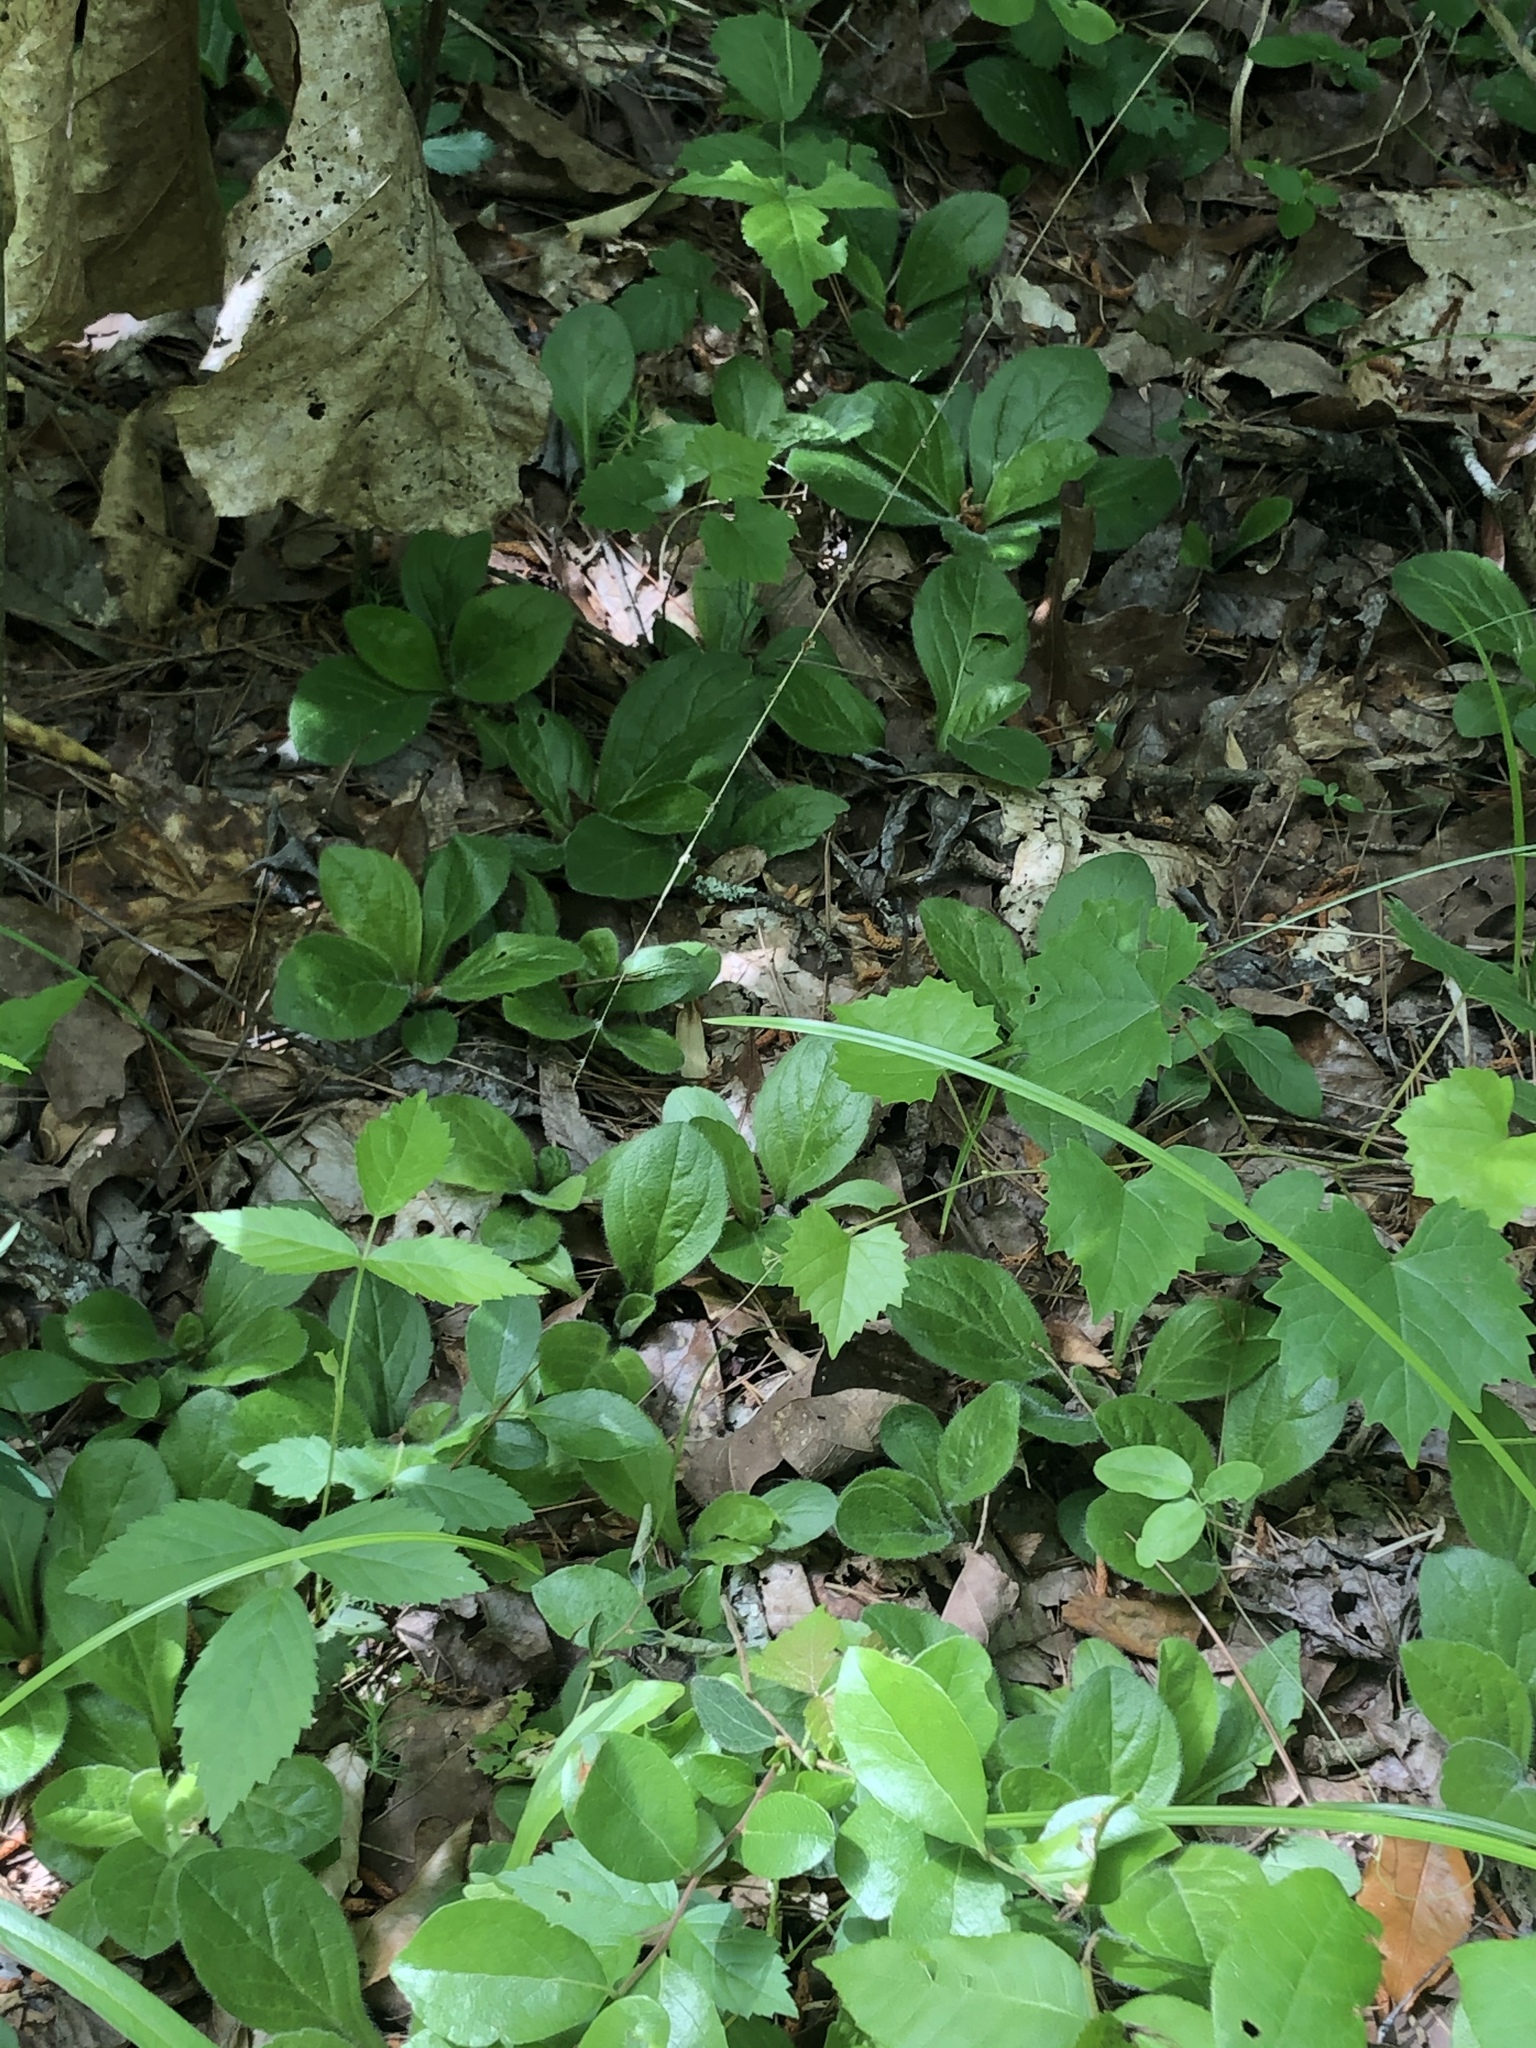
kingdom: Plantae
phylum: Tracheophyta
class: Magnoliopsida
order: Asterales
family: Asteraceae
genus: Erigeron
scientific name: Erigeron pulchellus
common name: Hairy fleabane
